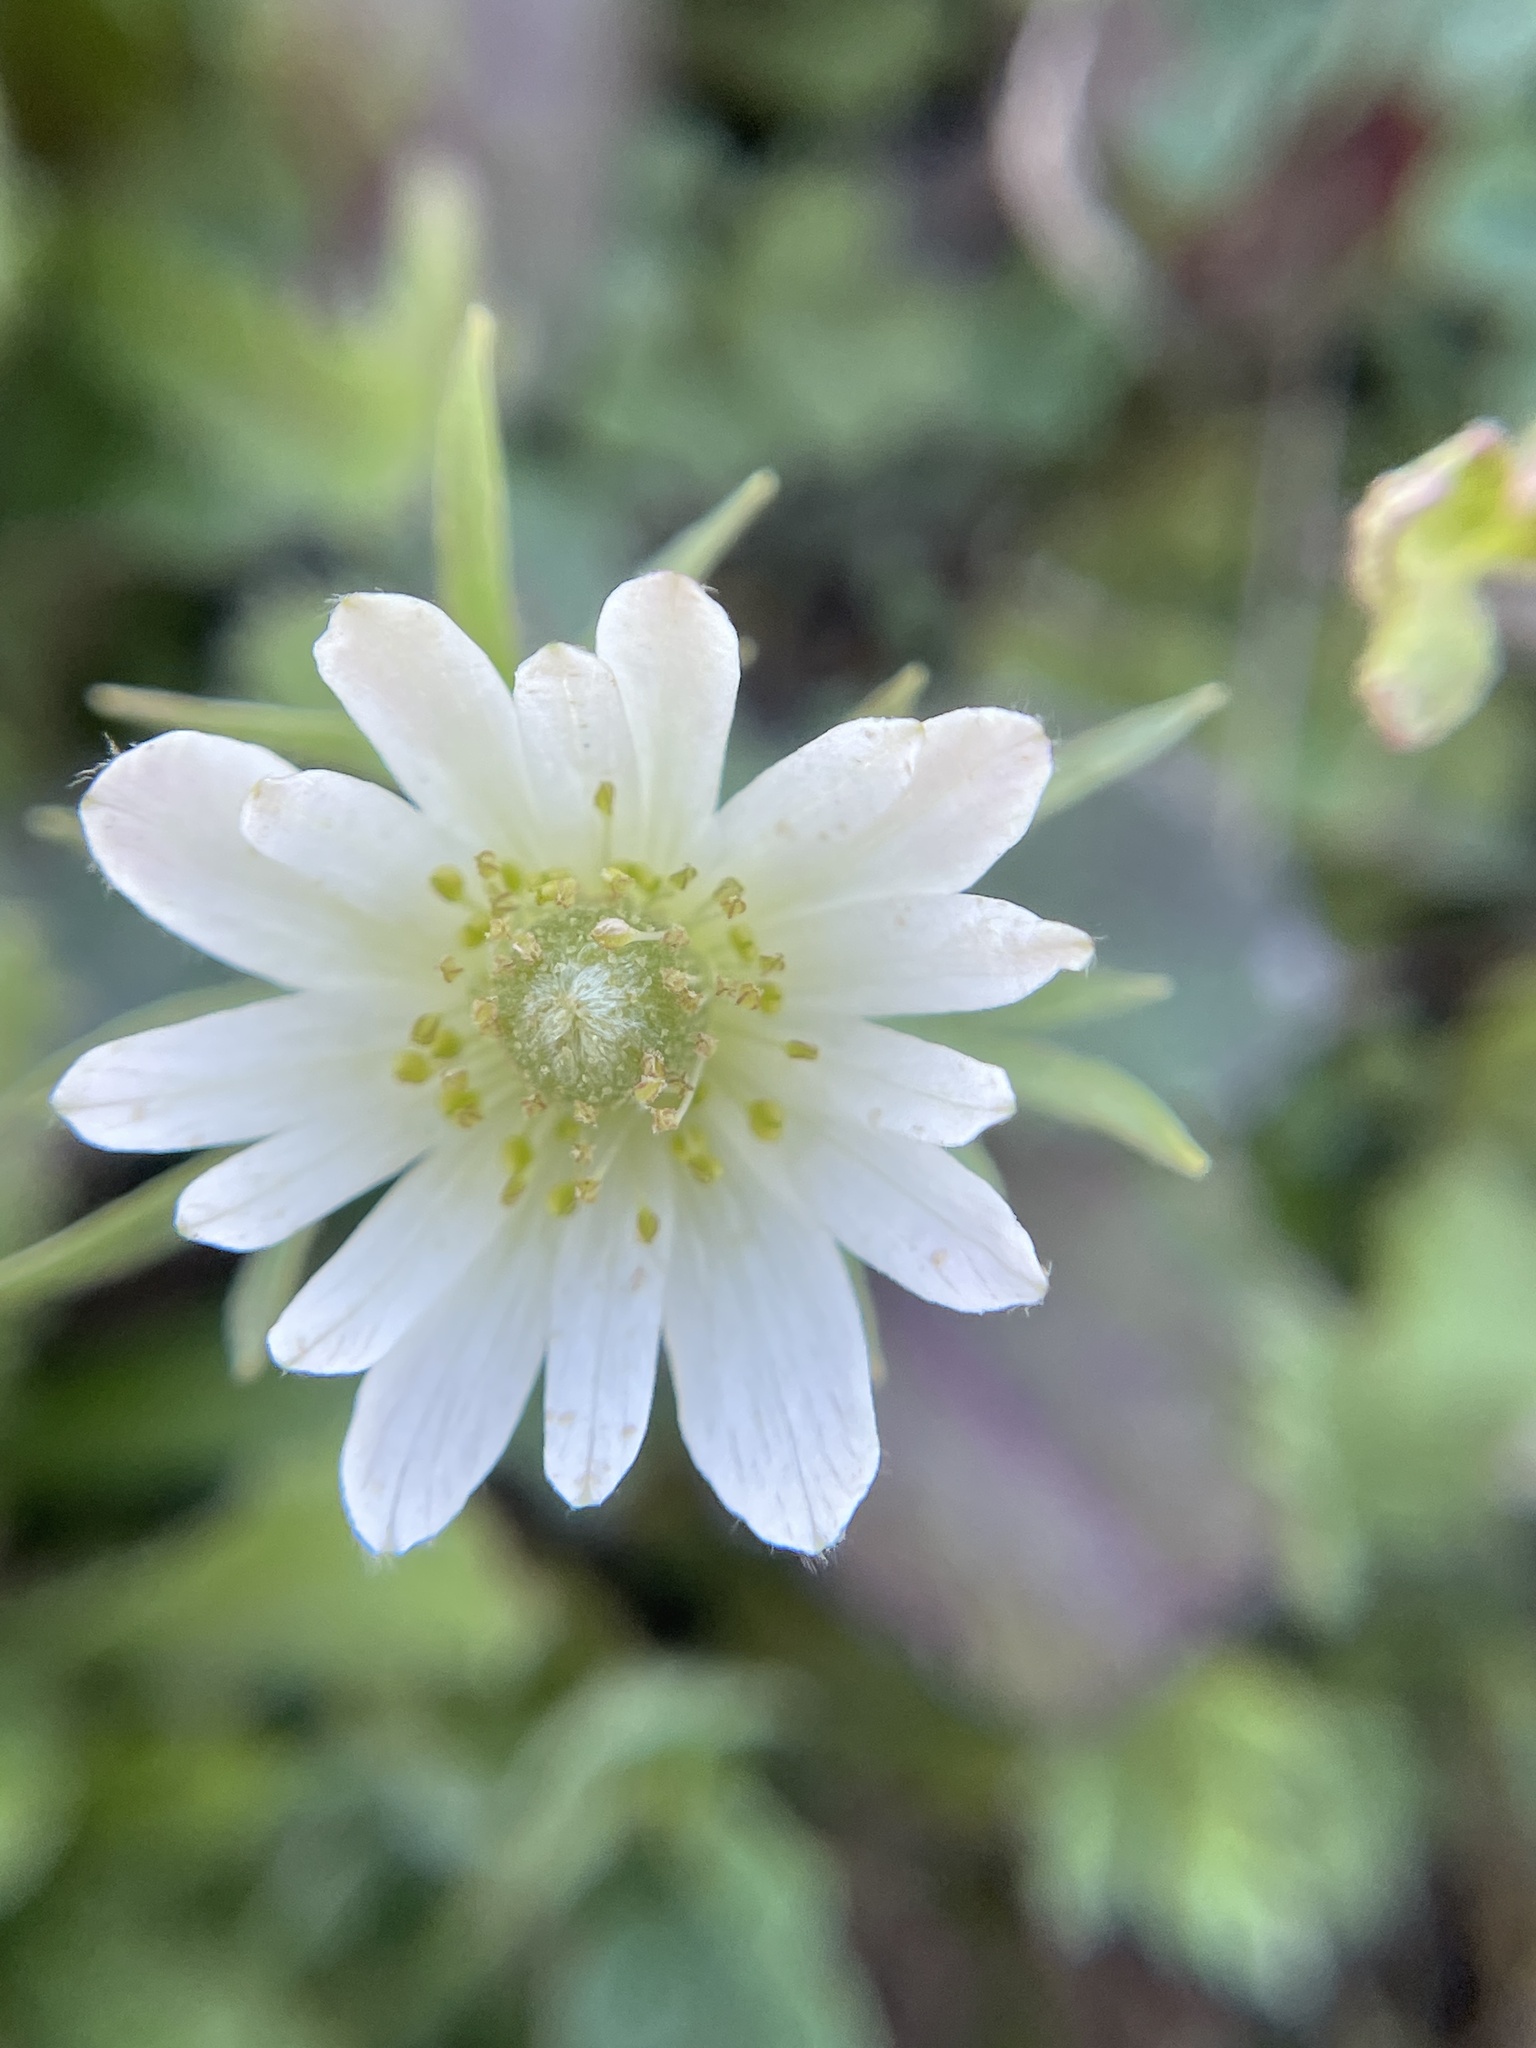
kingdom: Plantae
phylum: Tracheophyta
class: Magnoliopsida
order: Ranunculales
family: Ranunculaceae
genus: Anemone
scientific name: Anemone berlandieri
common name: Ten-petal anemone
